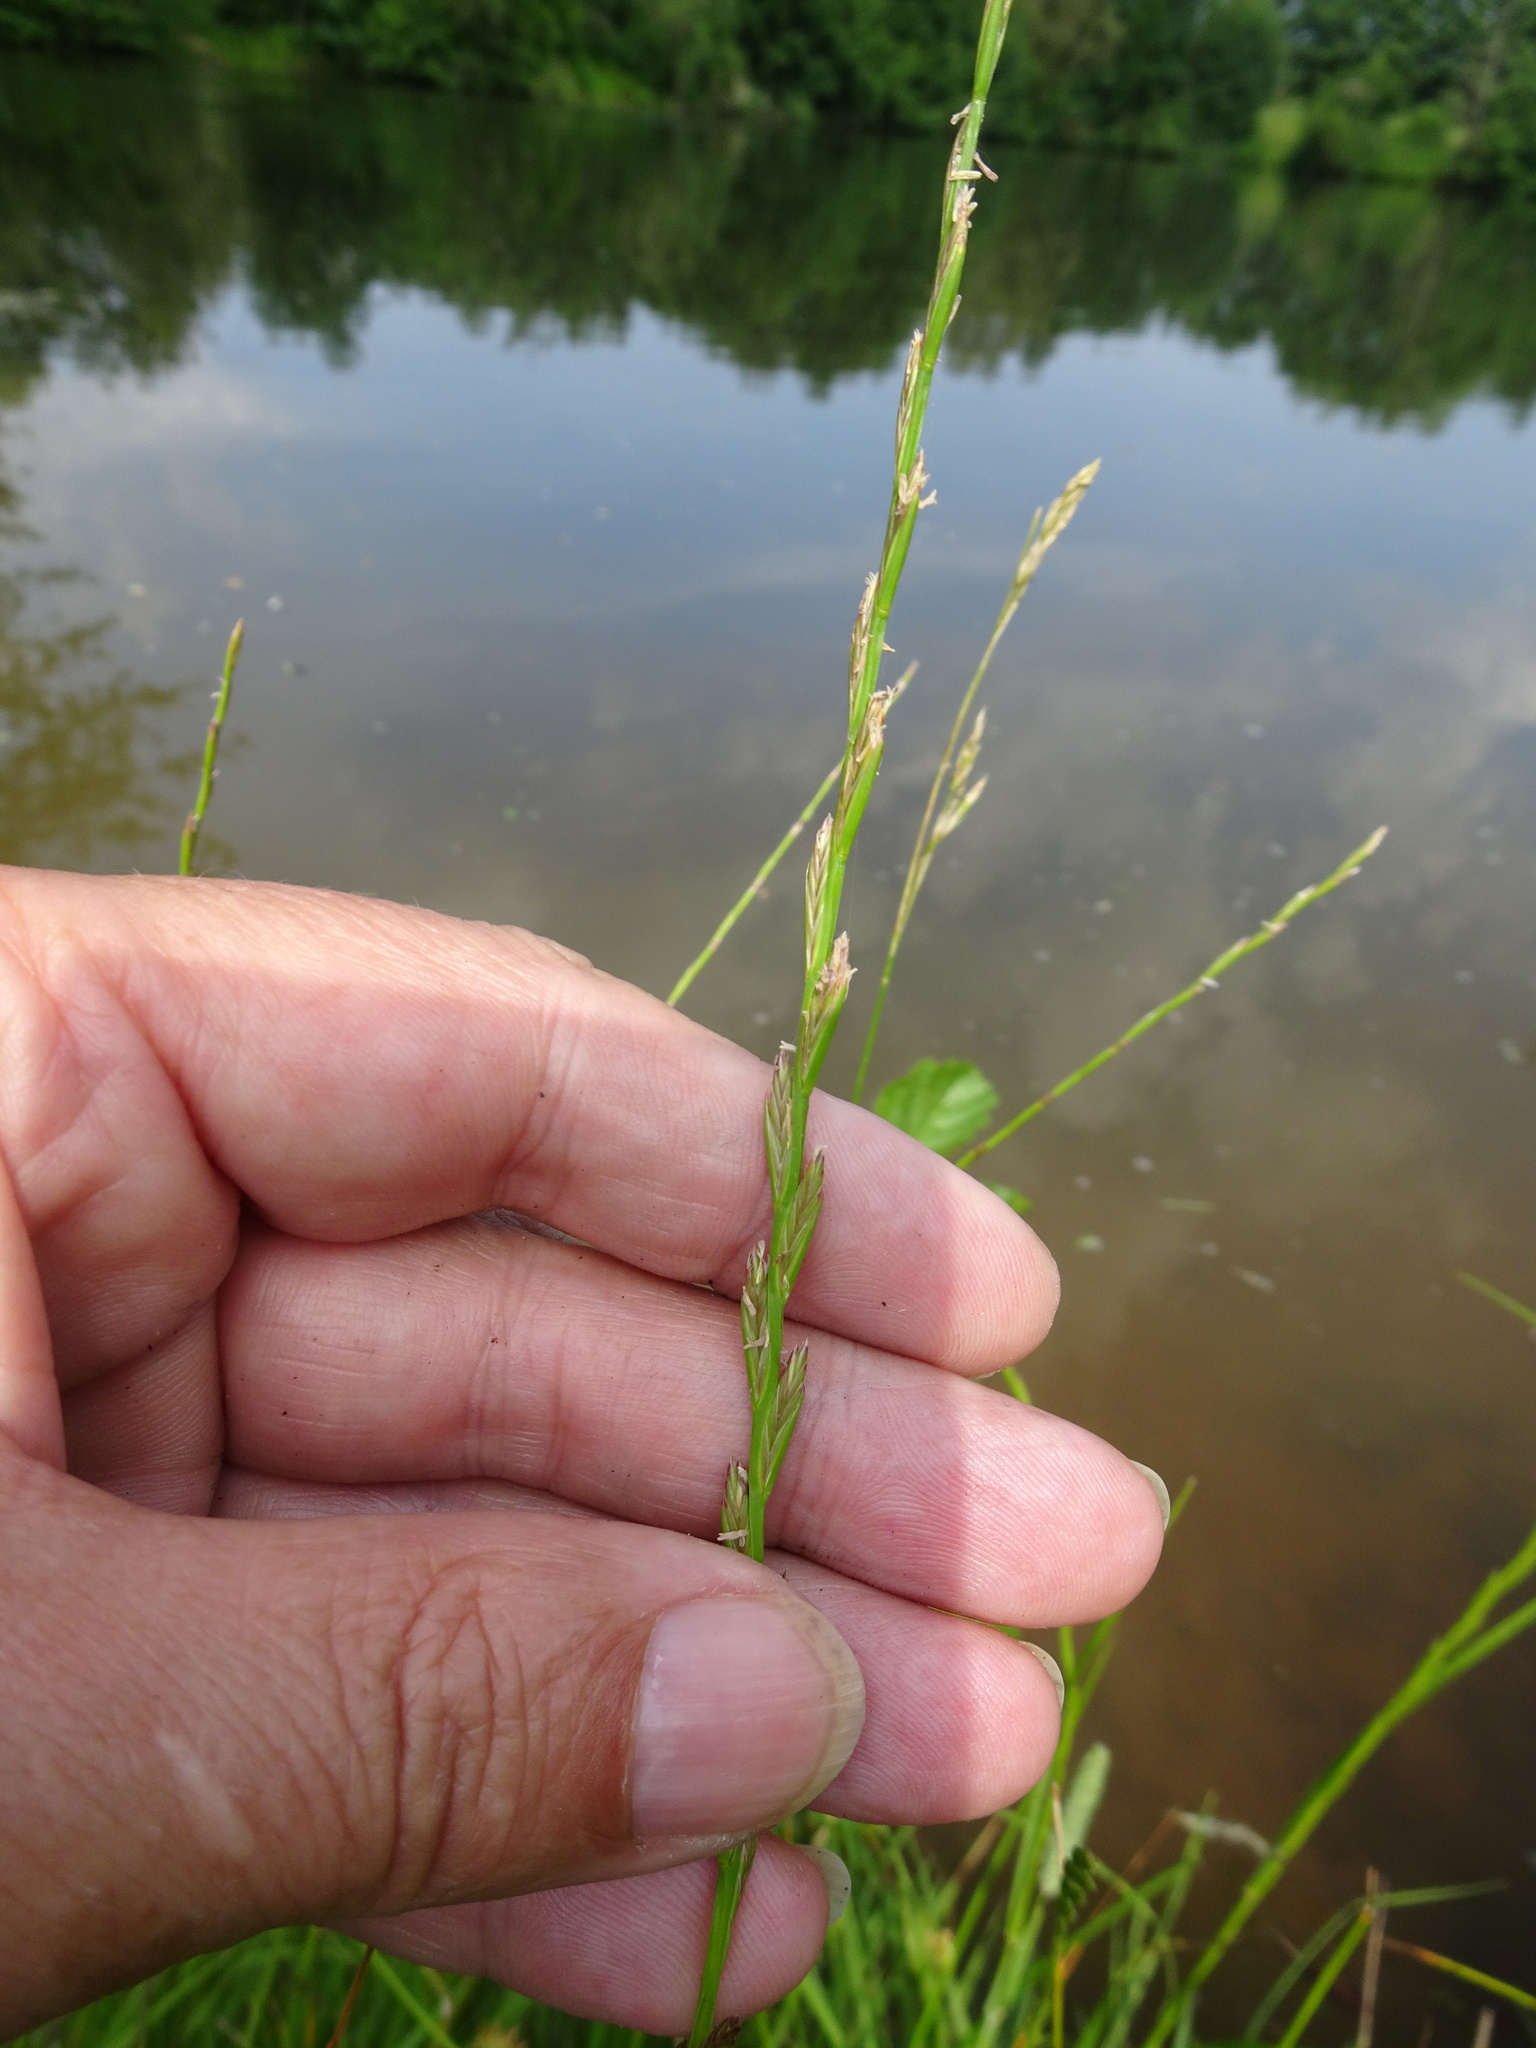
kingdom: Plantae
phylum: Tracheophyta
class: Liliopsida
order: Poales
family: Poaceae
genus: Lolium
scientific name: Lolium perenne
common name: Perennial ryegrass
